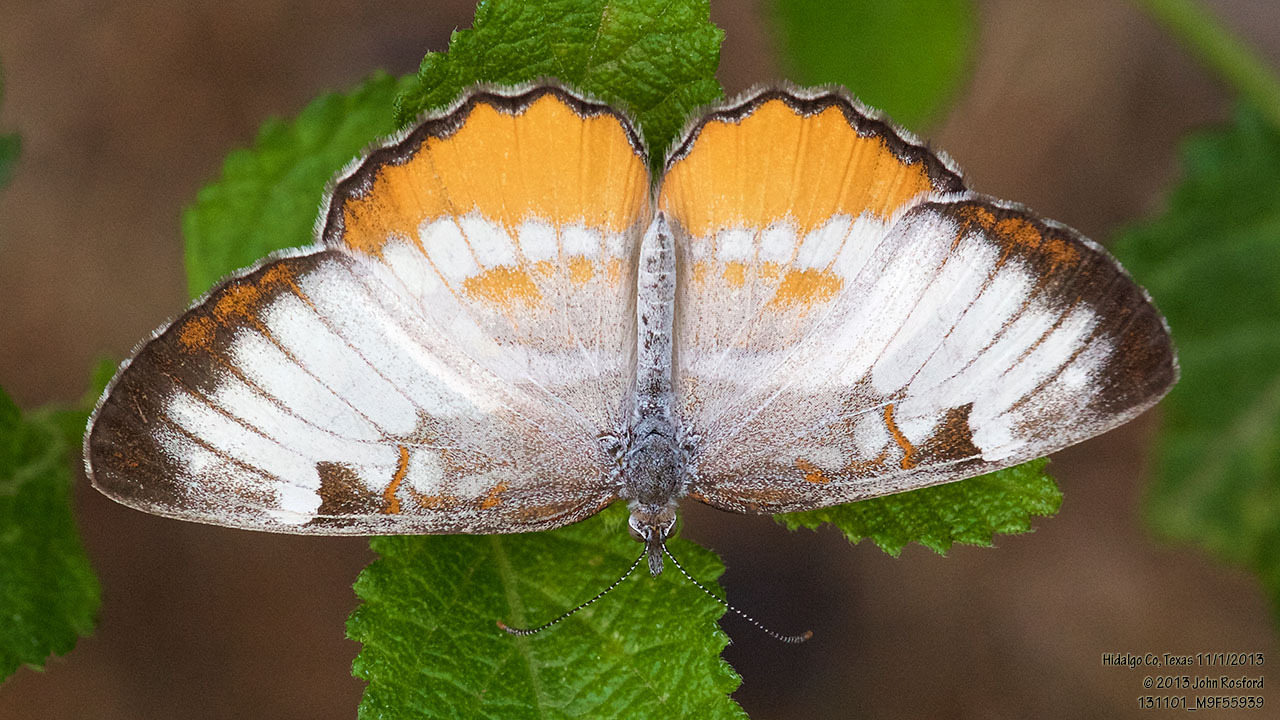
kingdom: Animalia
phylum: Arthropoda
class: Insecta
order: Lepidoptera
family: Nymphalidae
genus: Mestra
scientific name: Mestra amymone
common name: Common mestra
